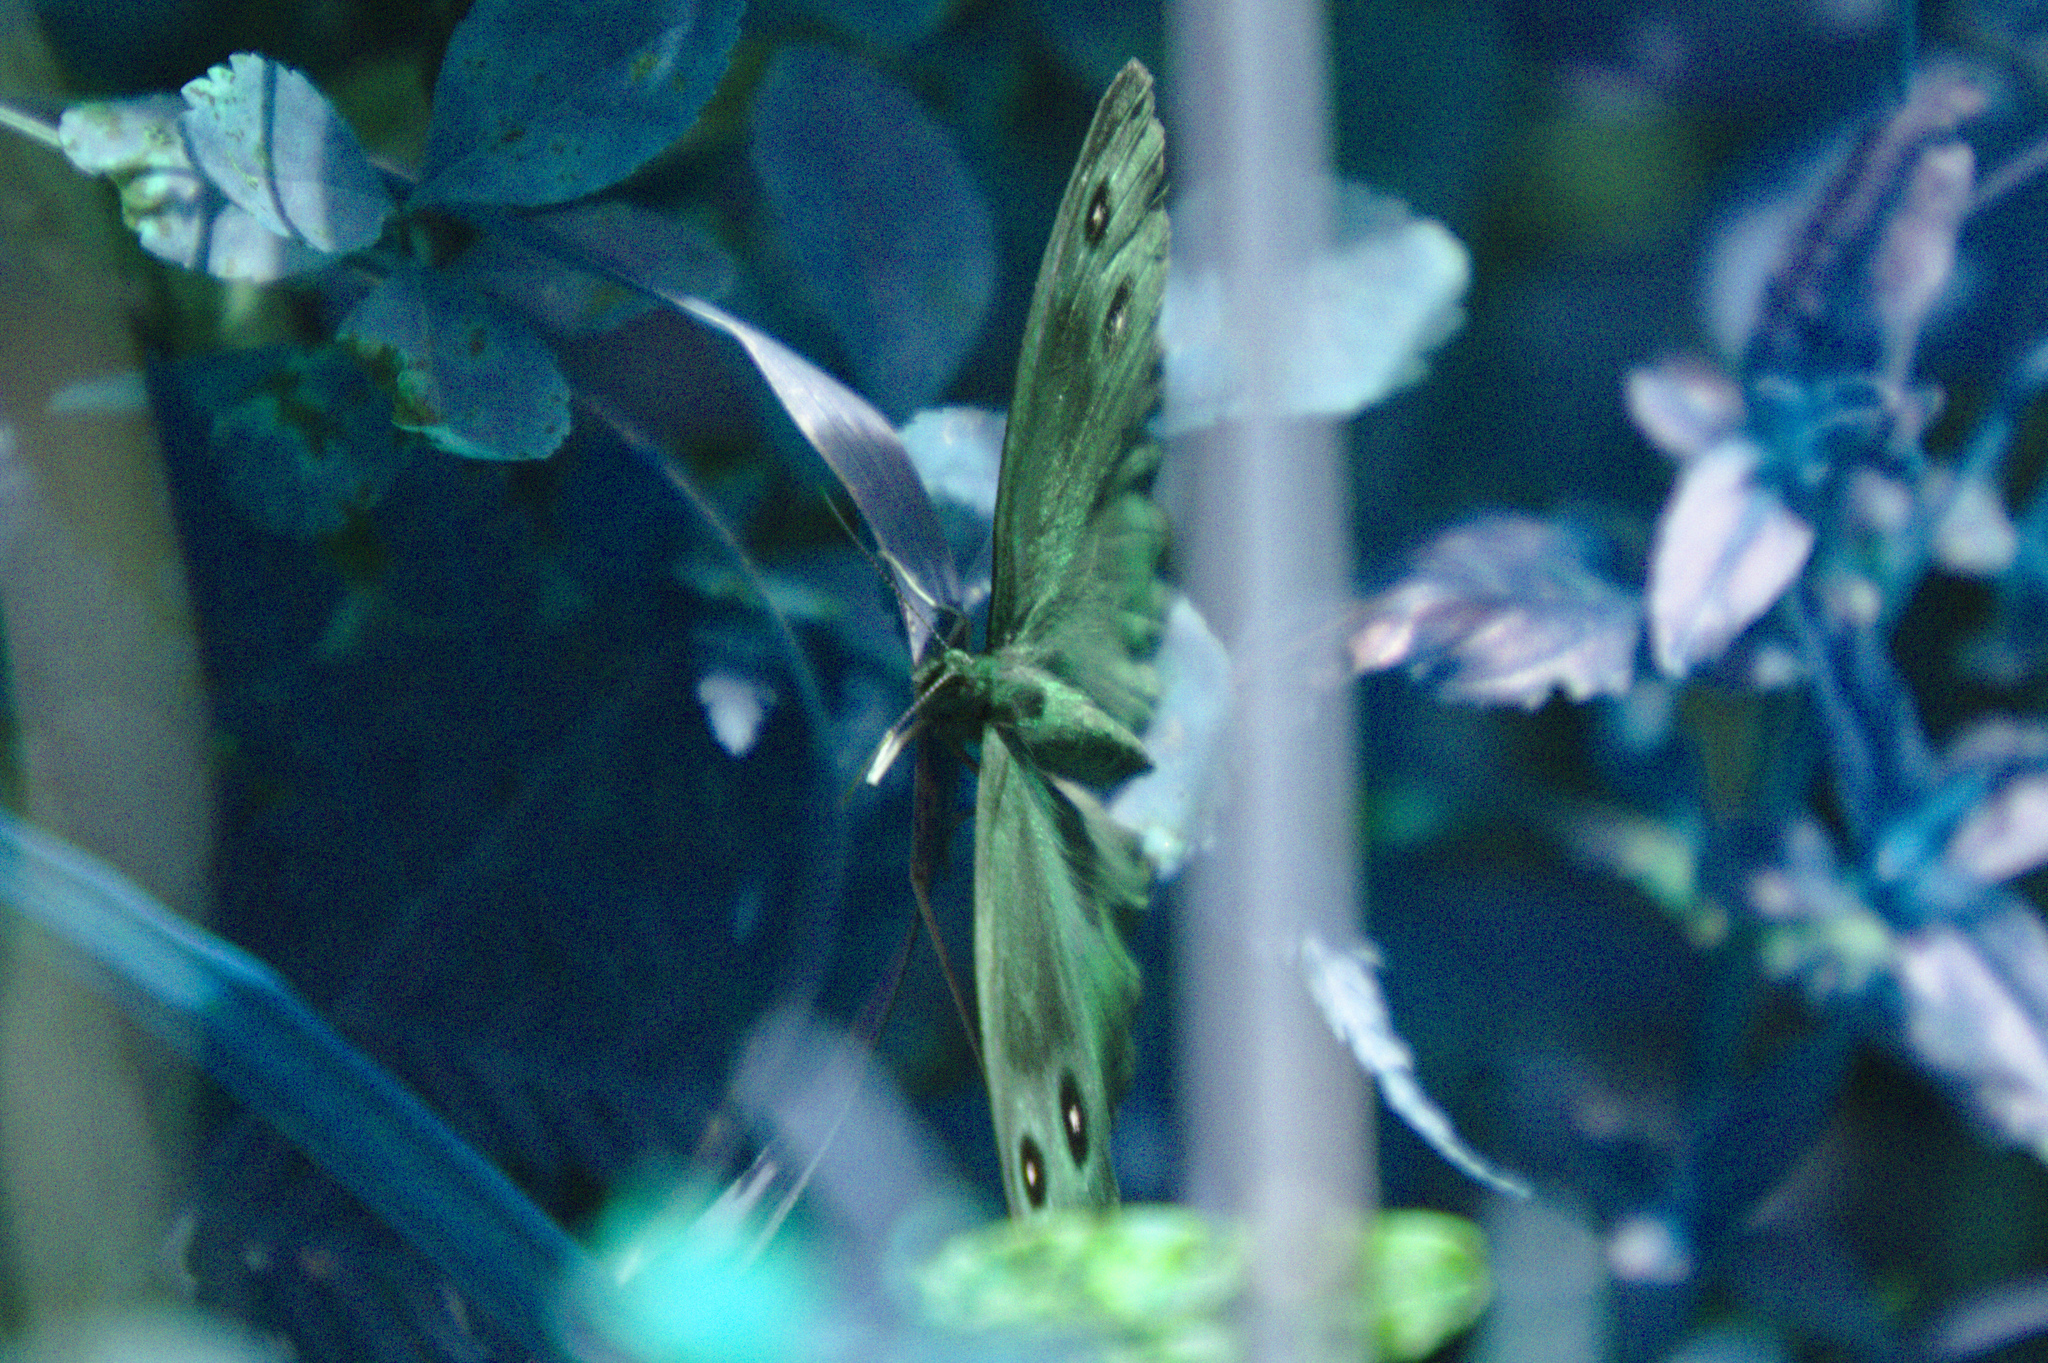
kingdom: Animalia
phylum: Arthropoda
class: Insecta
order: Lepidoptera
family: Nymphalidae
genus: Cercyonis
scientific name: Cercyonis pegala
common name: Common wood-nymph
